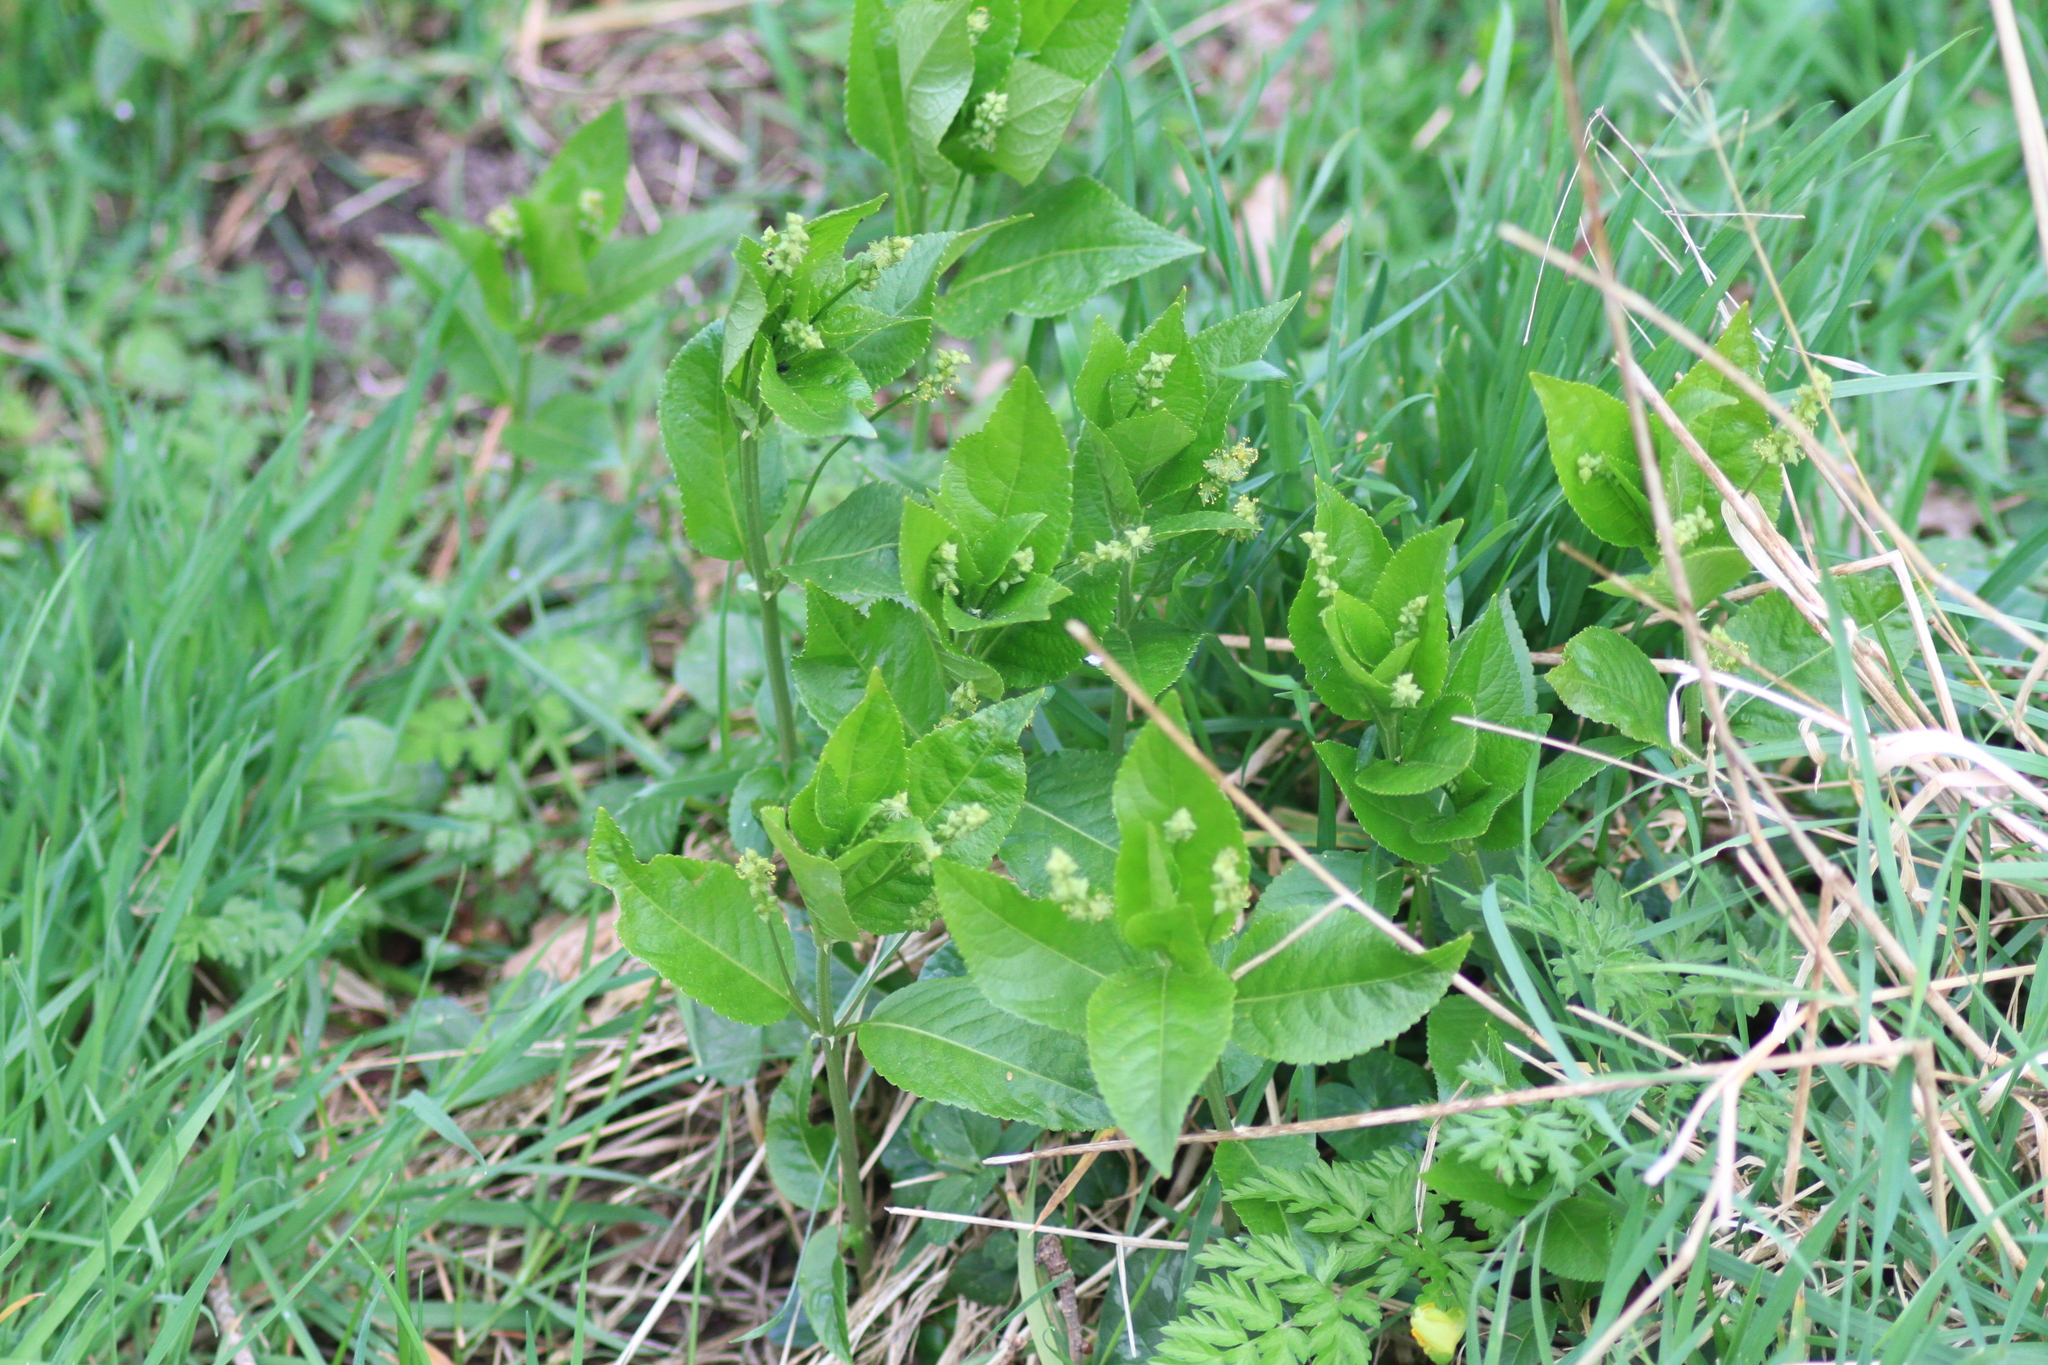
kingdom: Plantae
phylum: Tracheophyta
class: Magnoliopsida
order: Malpighiales
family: Euphorbiaceae
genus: Mercurialis
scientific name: Mercurialis perennis
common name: Dog mercury
